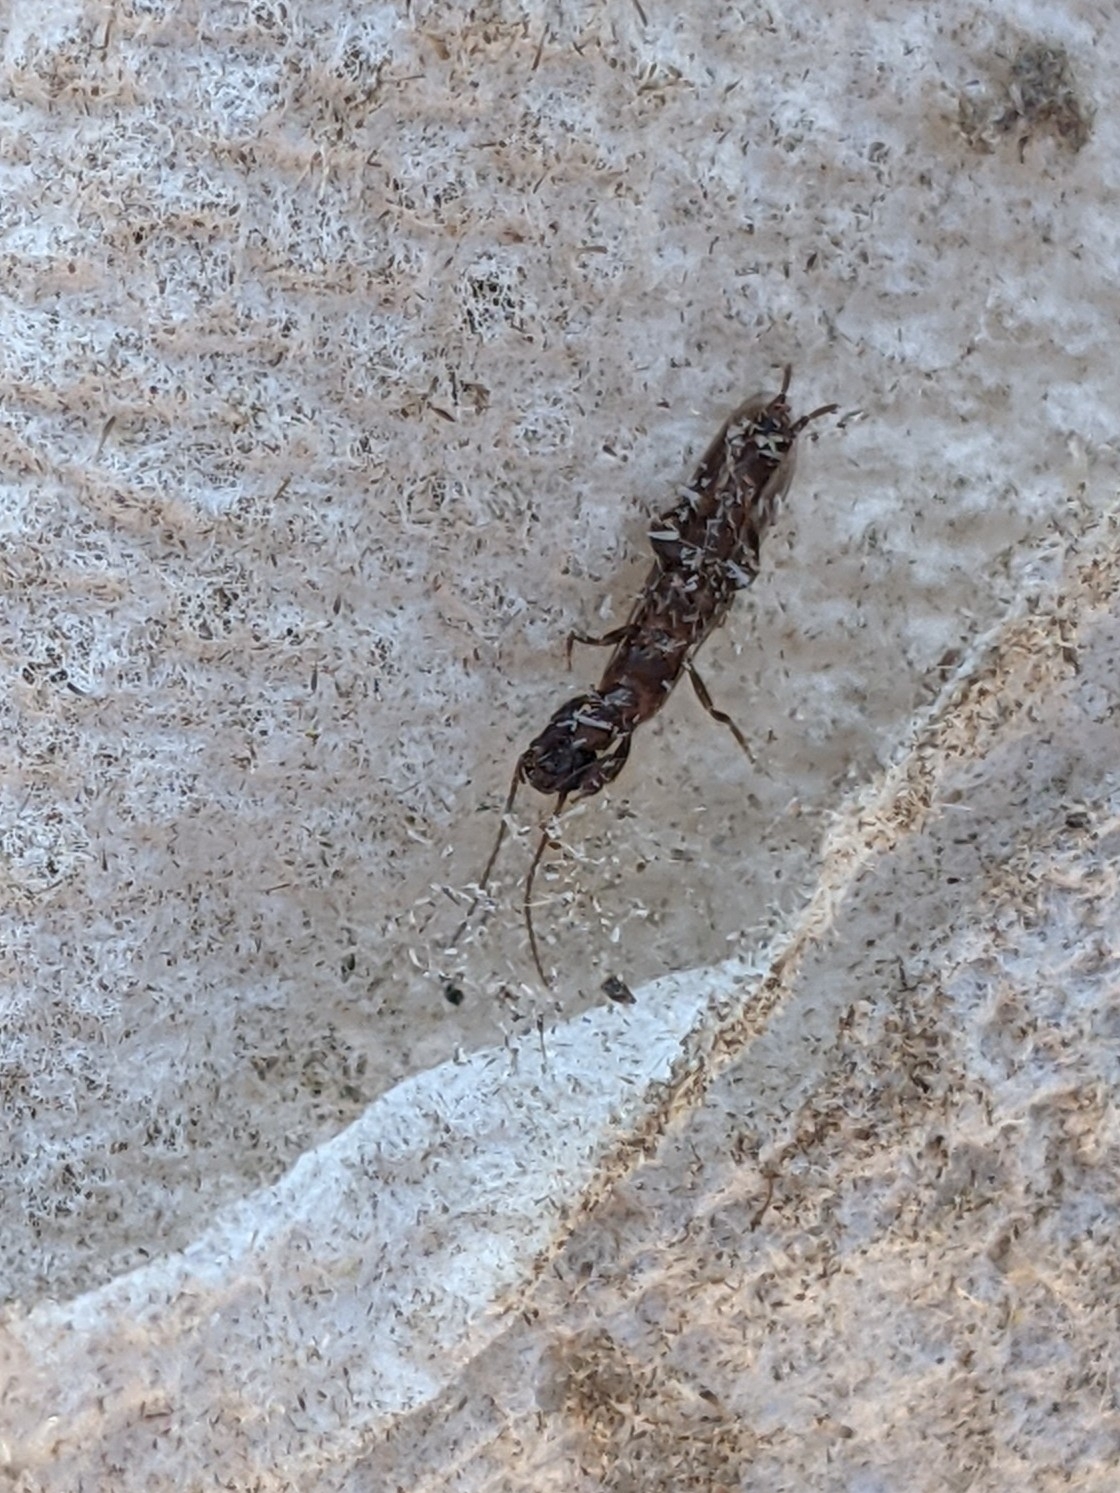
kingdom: Animalia
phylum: Arthropoda
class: Insecta
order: Embioptera
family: Oligotomidae
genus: Oligotoma
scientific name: Oligotoma nigra
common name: Black webspinner
